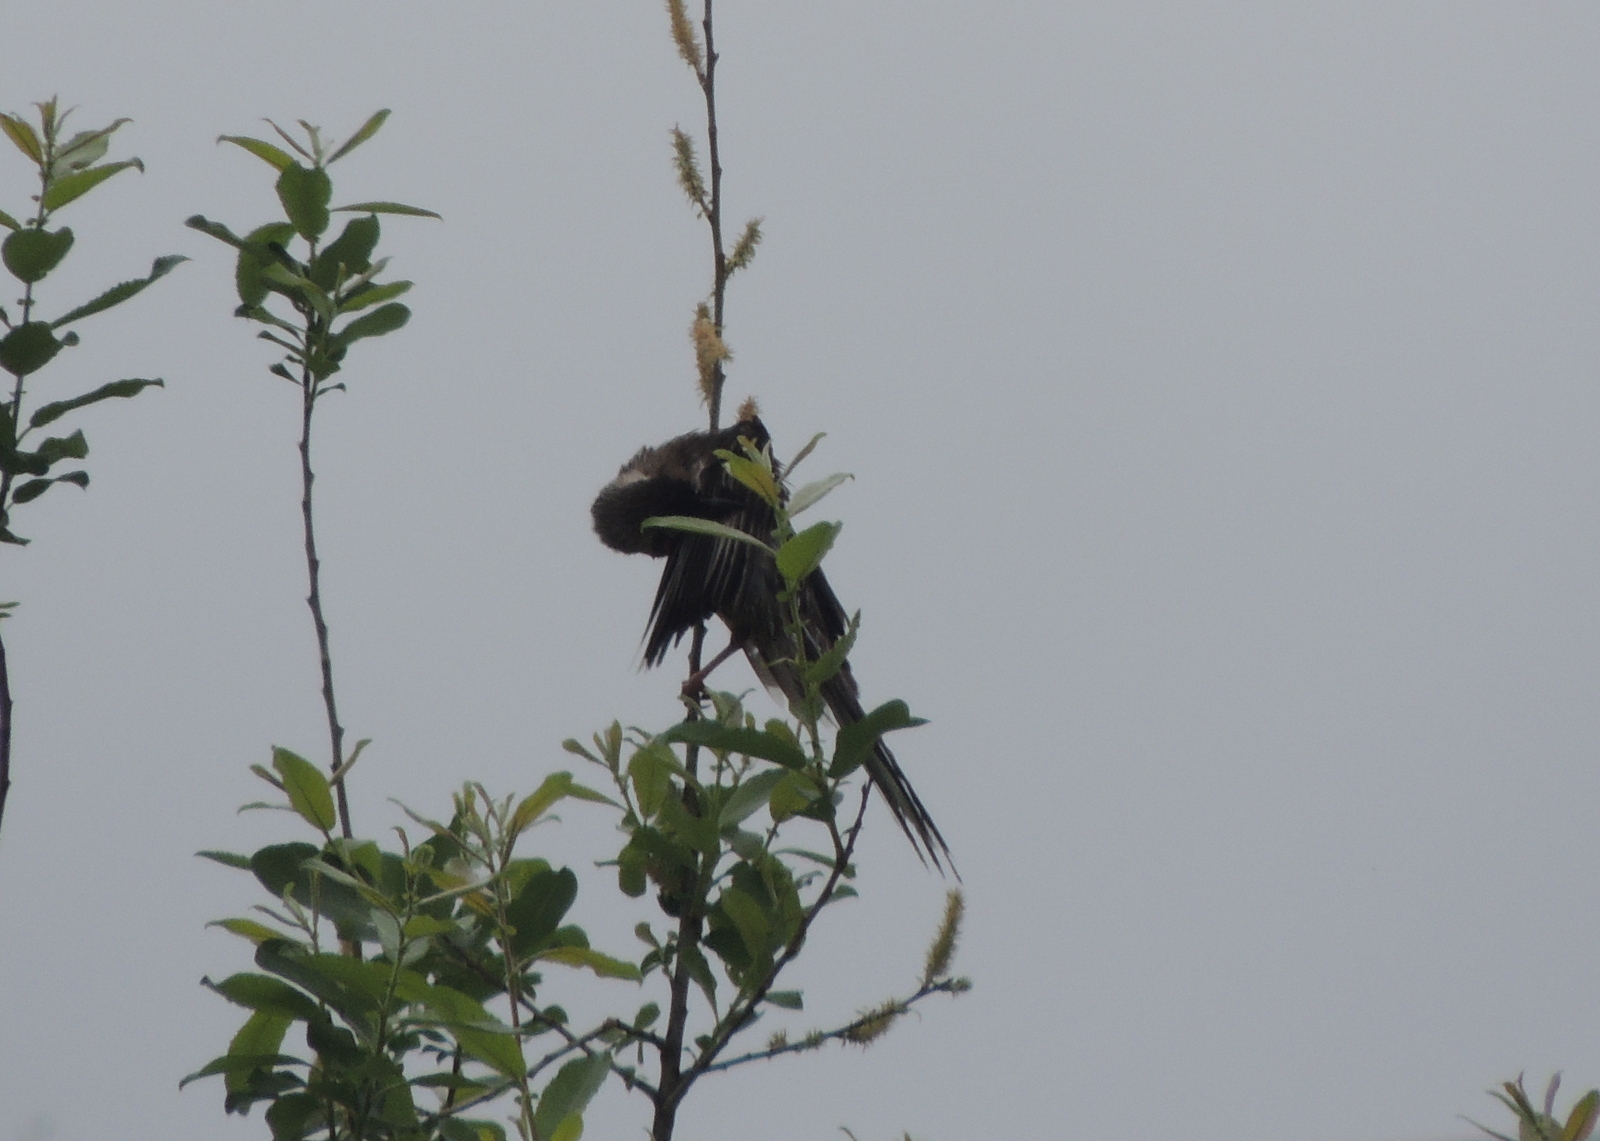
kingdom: Animalia
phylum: Chordata
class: Aves
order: Passeriformes
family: Meliphagidae
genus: Anthochaera
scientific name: Anthochaera carunculata
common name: Red wattlebird
